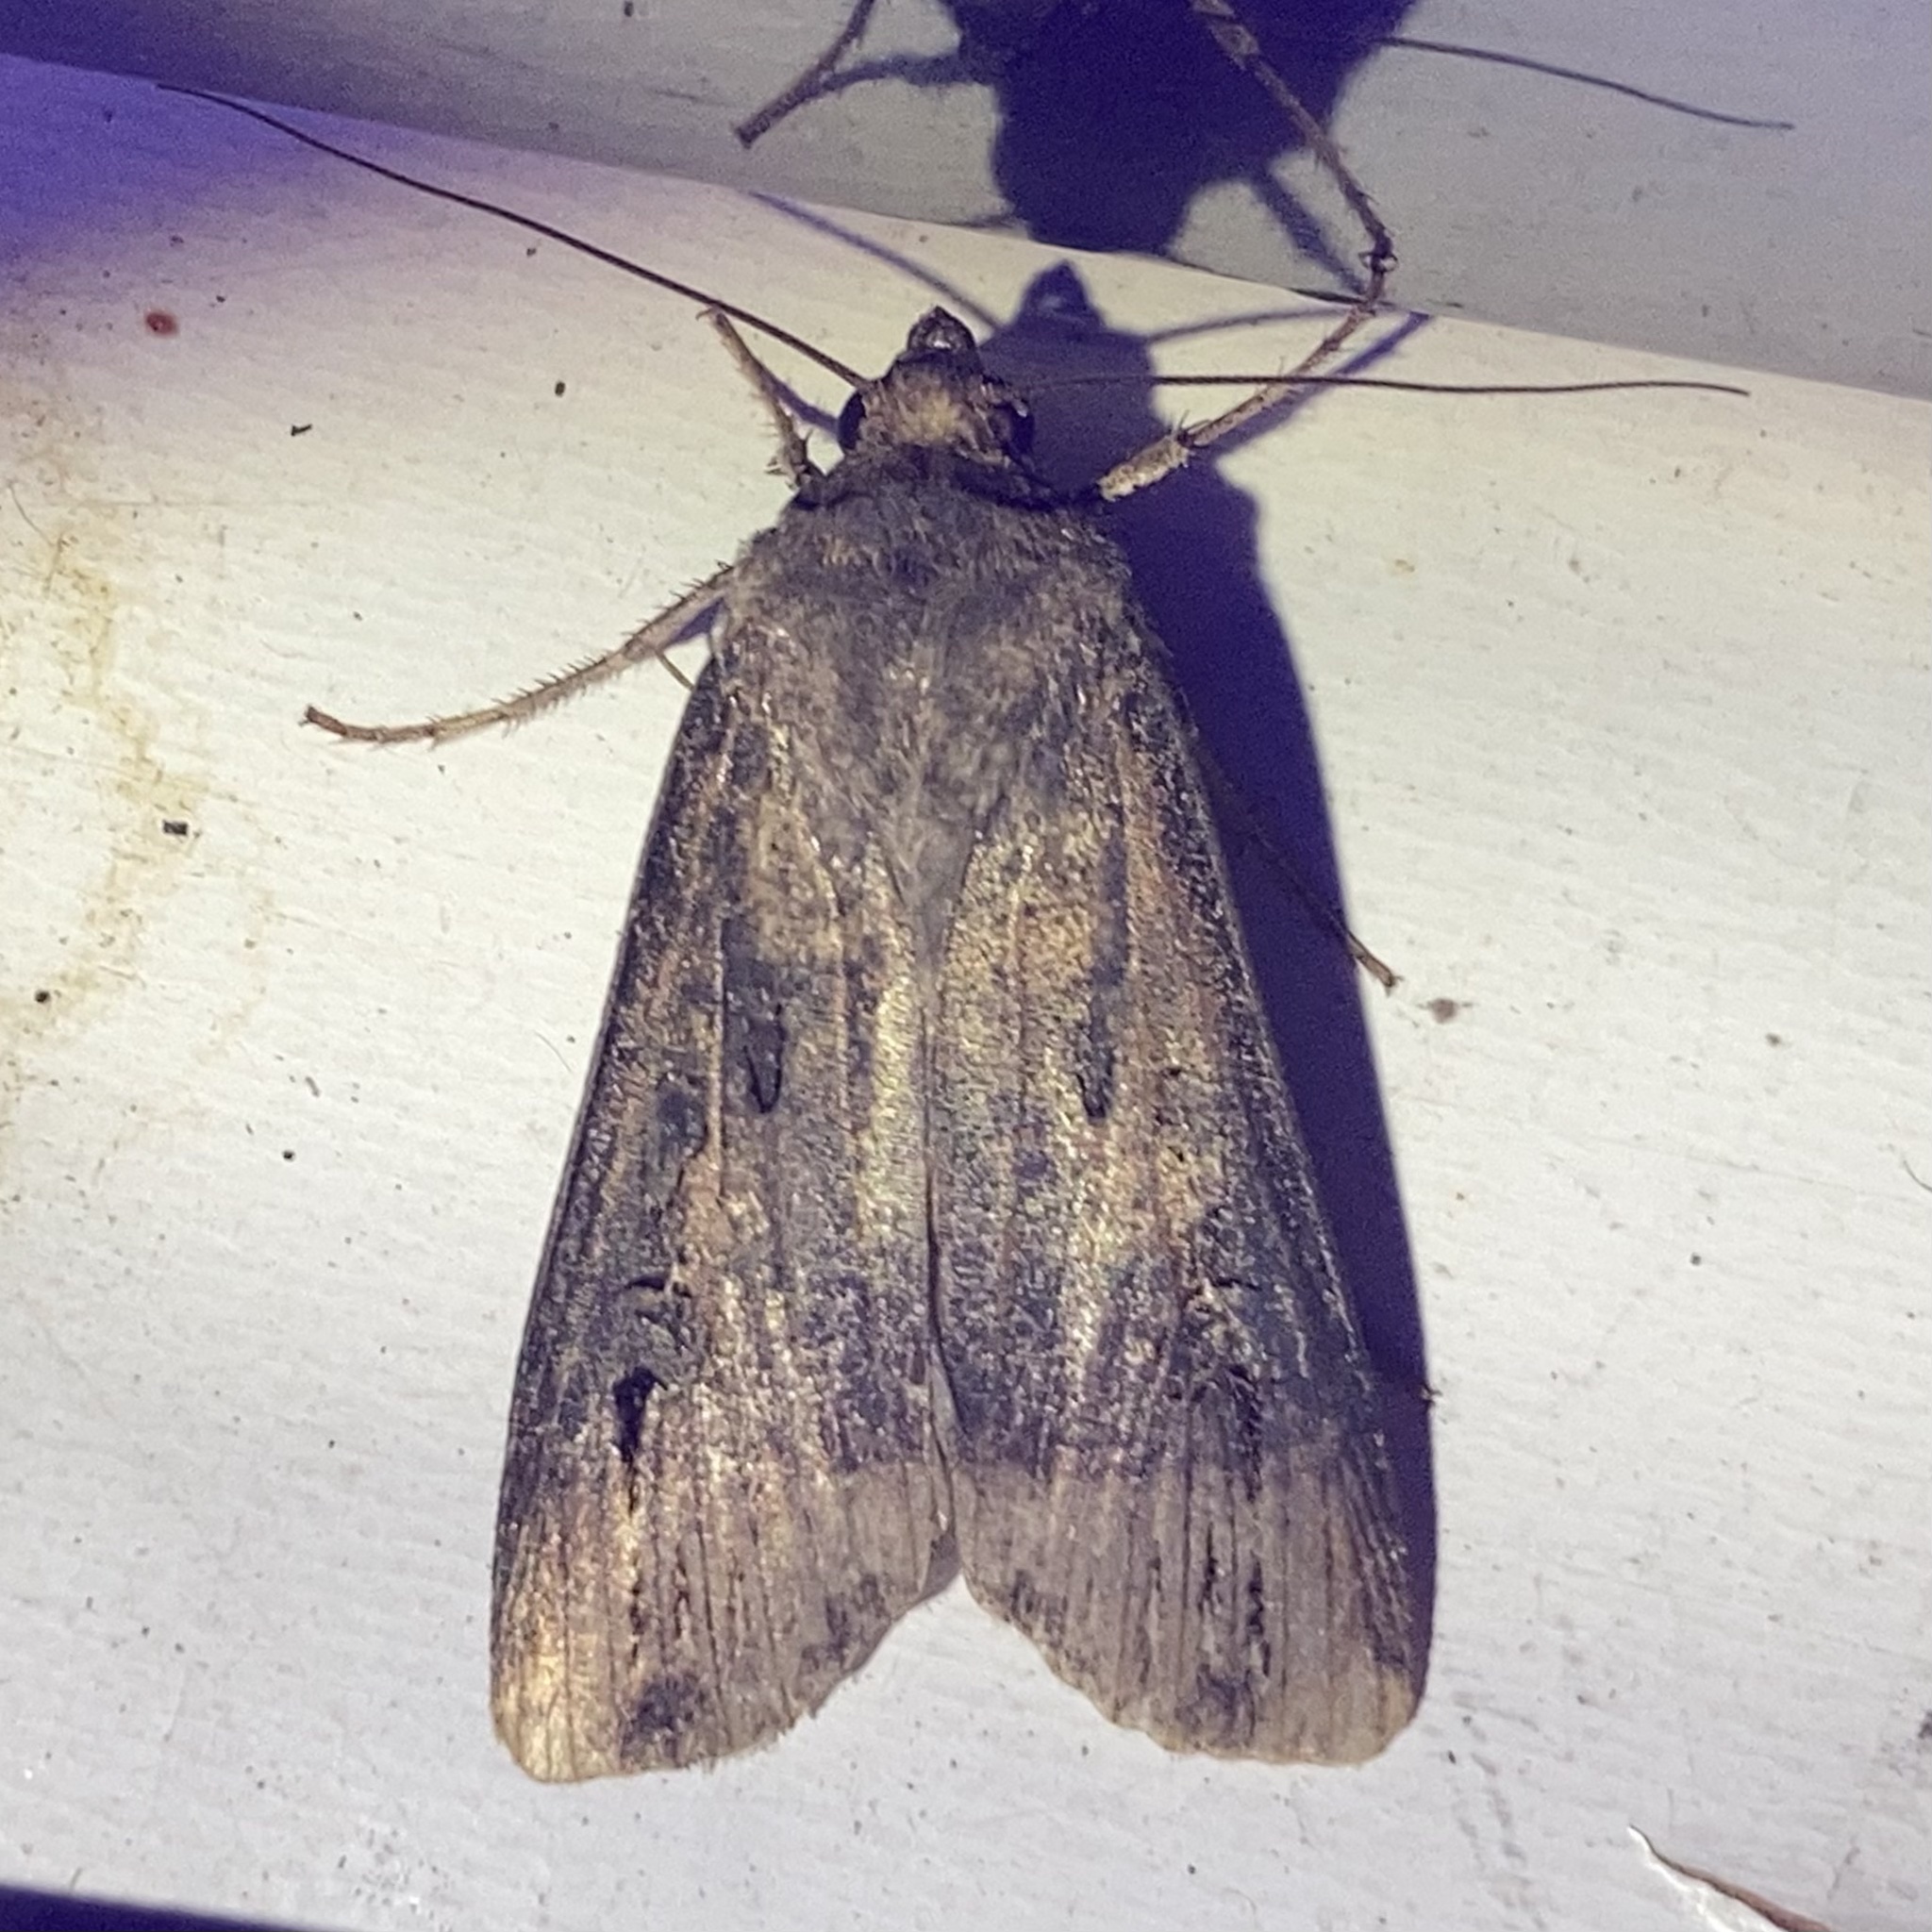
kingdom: Animalia
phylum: Arthropoda
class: Insecta
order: Lepidoptera
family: Noctuidae
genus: Agrotis
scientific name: Agrotis ipsilon
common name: Dark sword-grass
